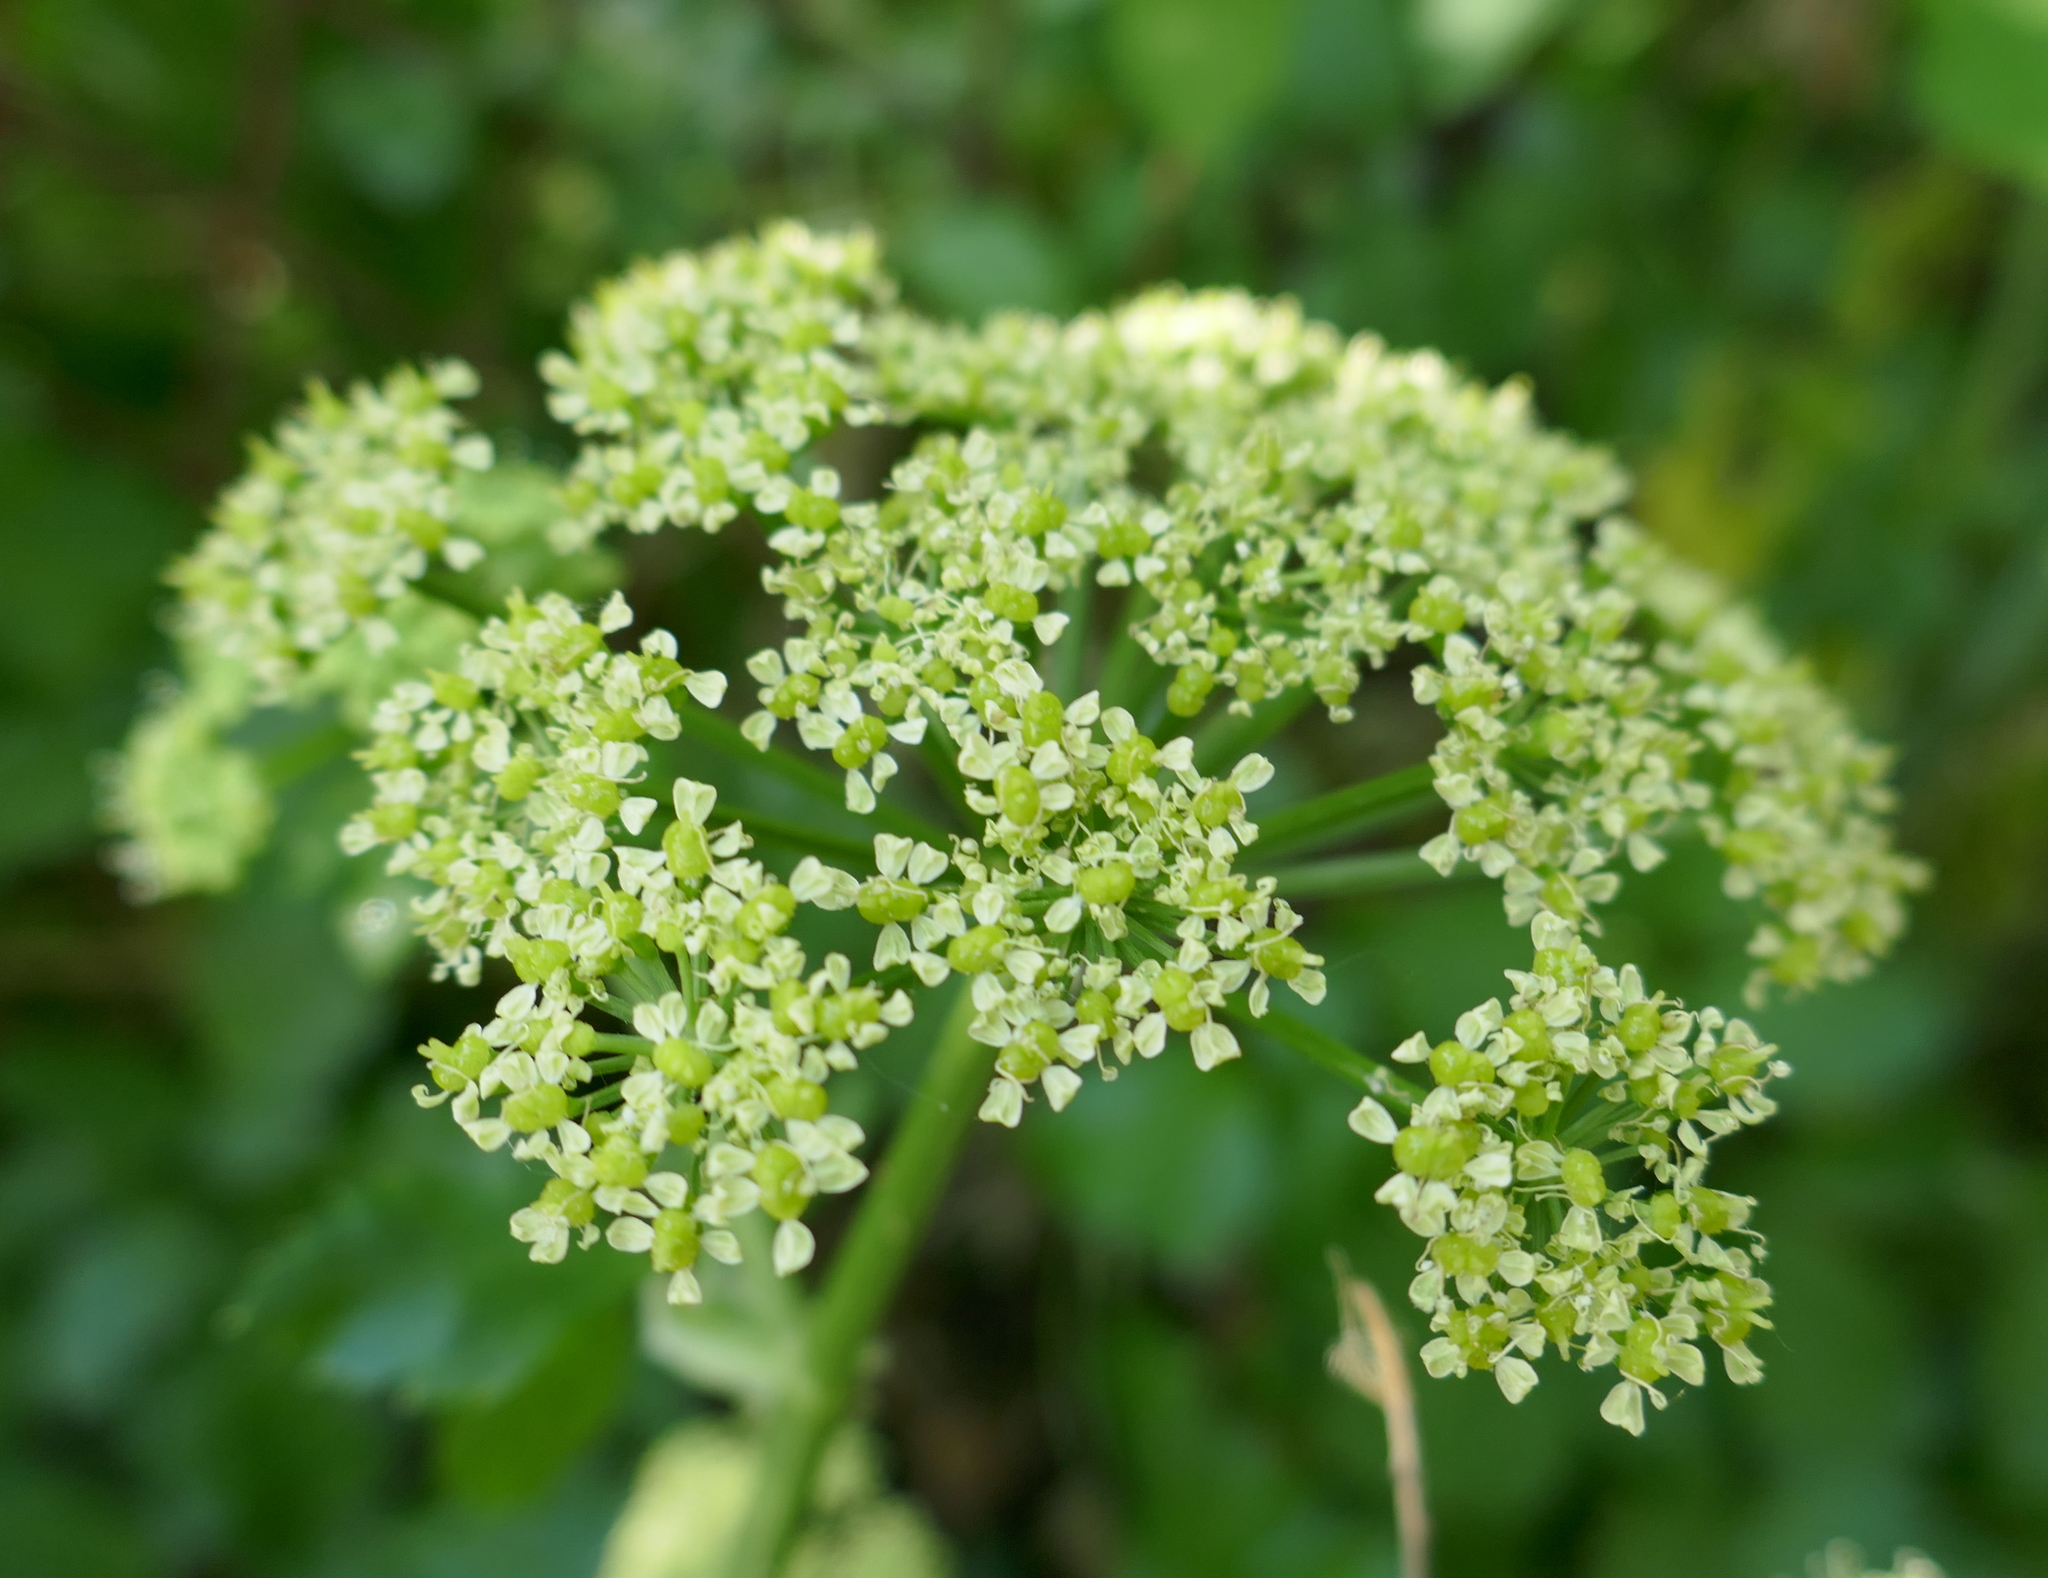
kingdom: Plantae
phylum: Tracheophyta
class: Magnoliopsida
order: Apiales
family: Apiaceae
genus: Smyrnium
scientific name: Smyrnium olusatrum
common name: Alexanders
